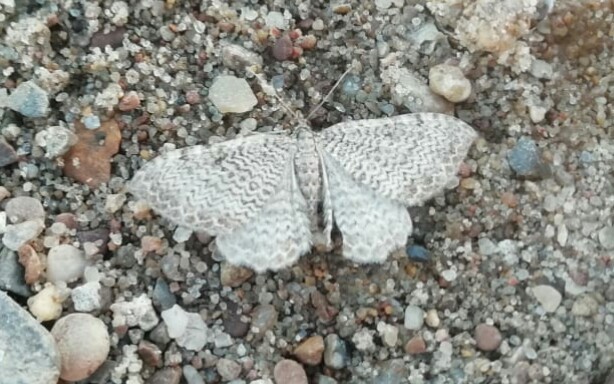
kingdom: Animalia
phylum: Arthropoda
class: Insecta
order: Lepidoptera
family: Geometridae
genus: Rheumaptera
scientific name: Rheumaptera undulata
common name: Scallop shell
